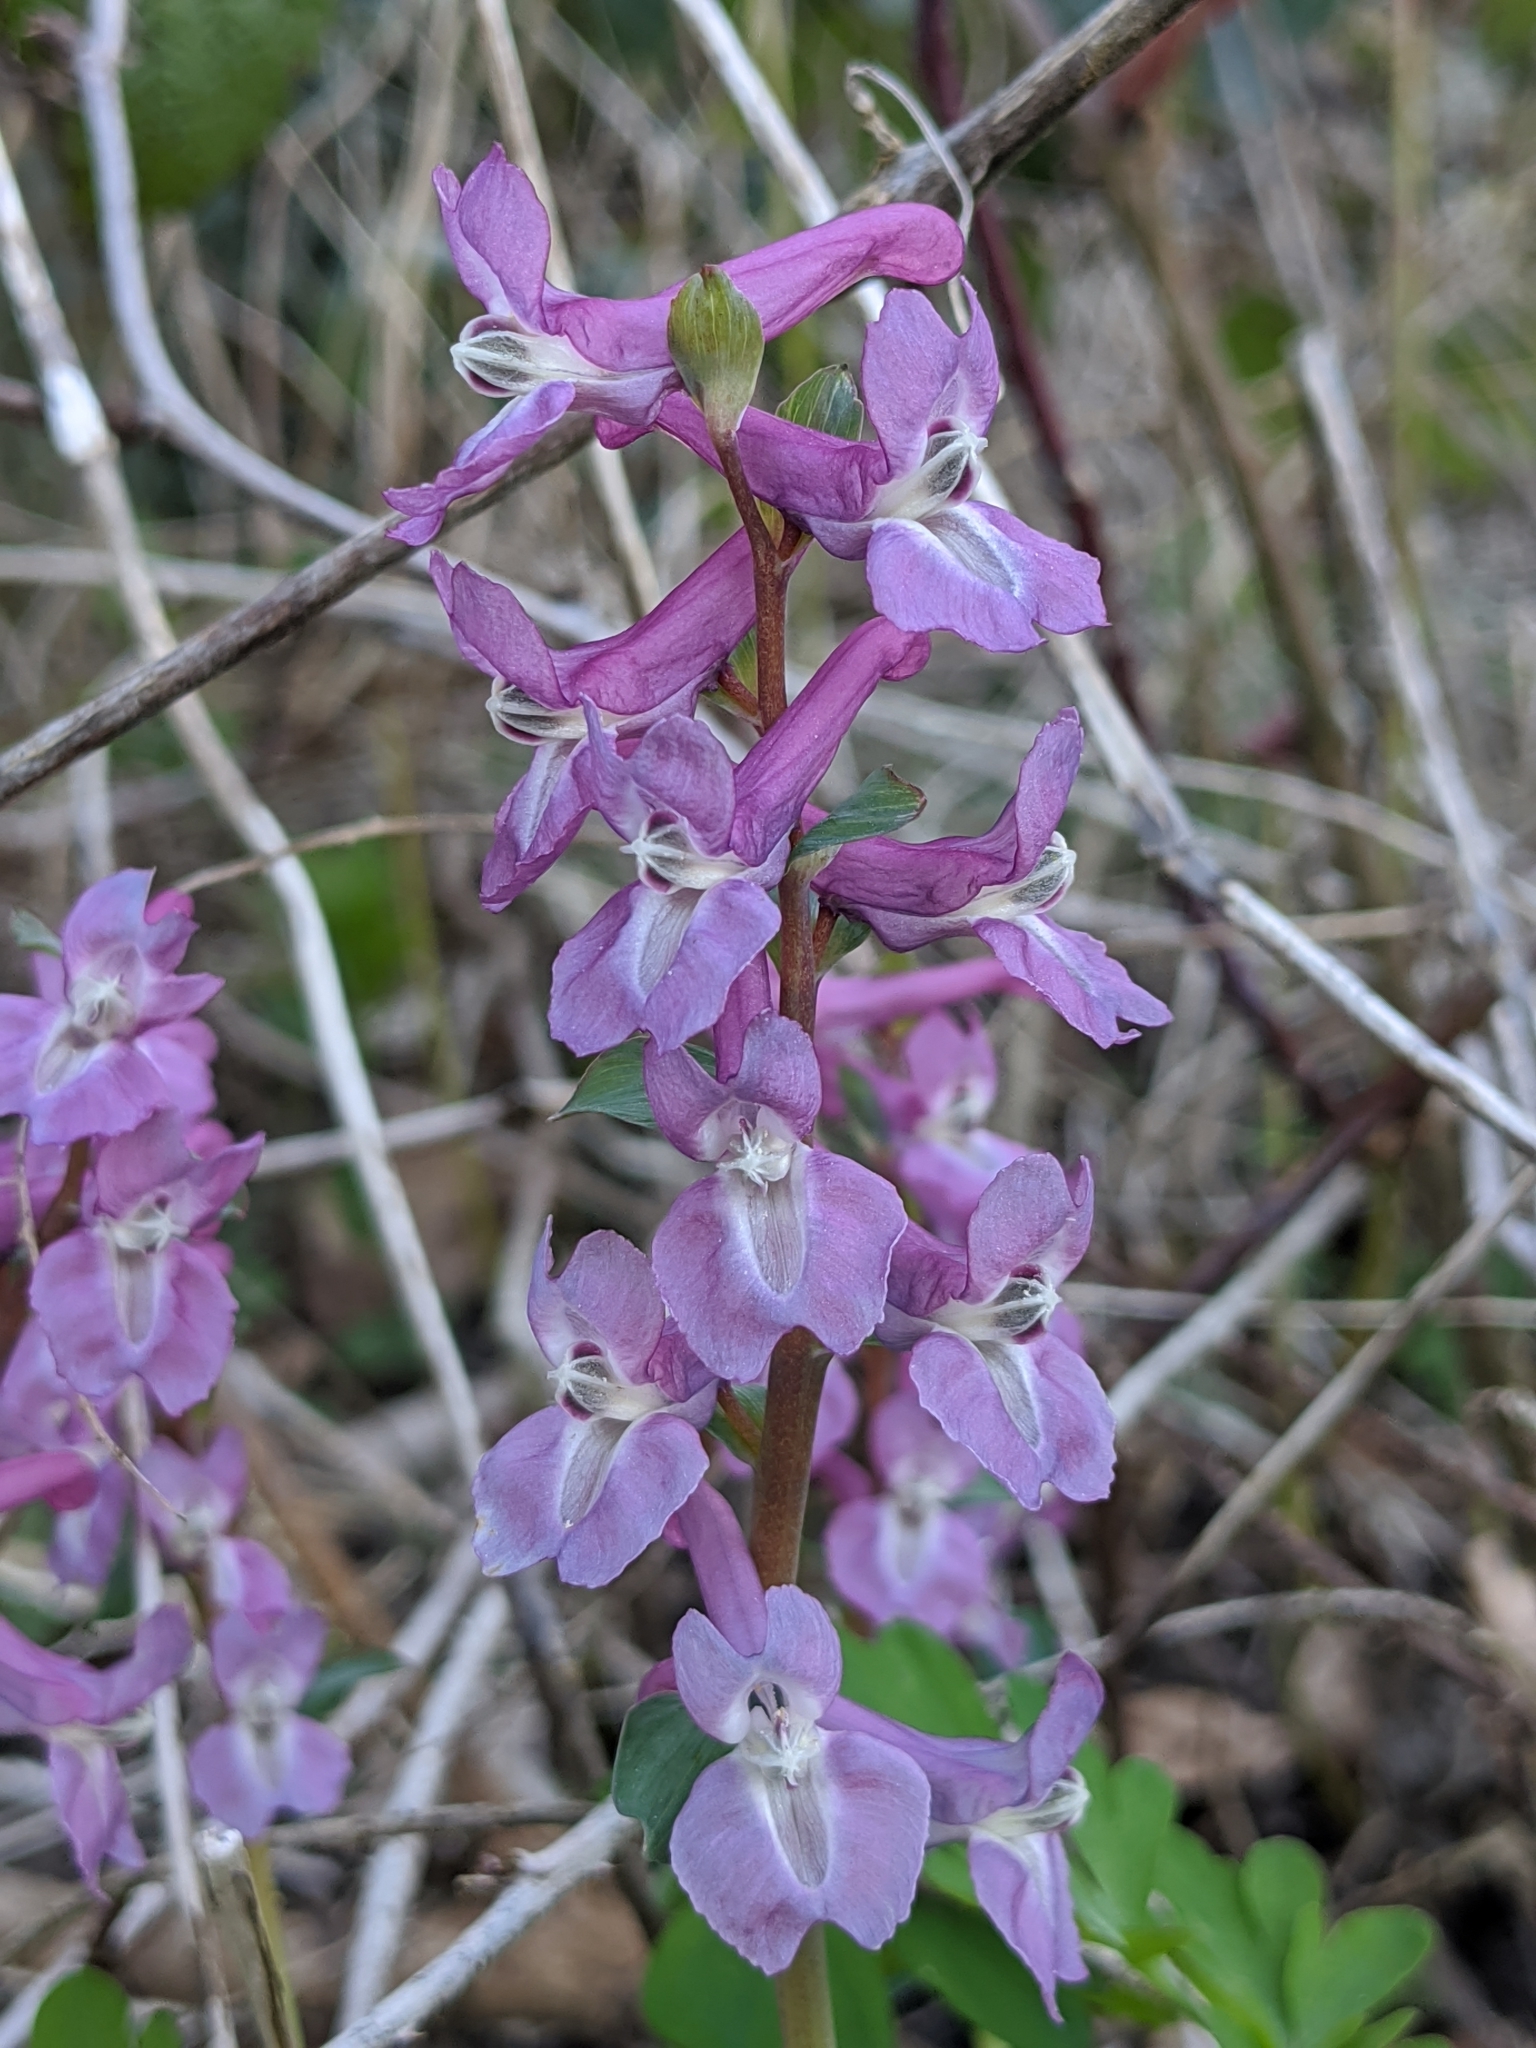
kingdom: Plantae
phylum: Tracheophyta
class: Magnoliopsida
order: Ranunculales
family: Papaveraceae
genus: Corydalis
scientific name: Corydalis cava
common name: Hollowroot
